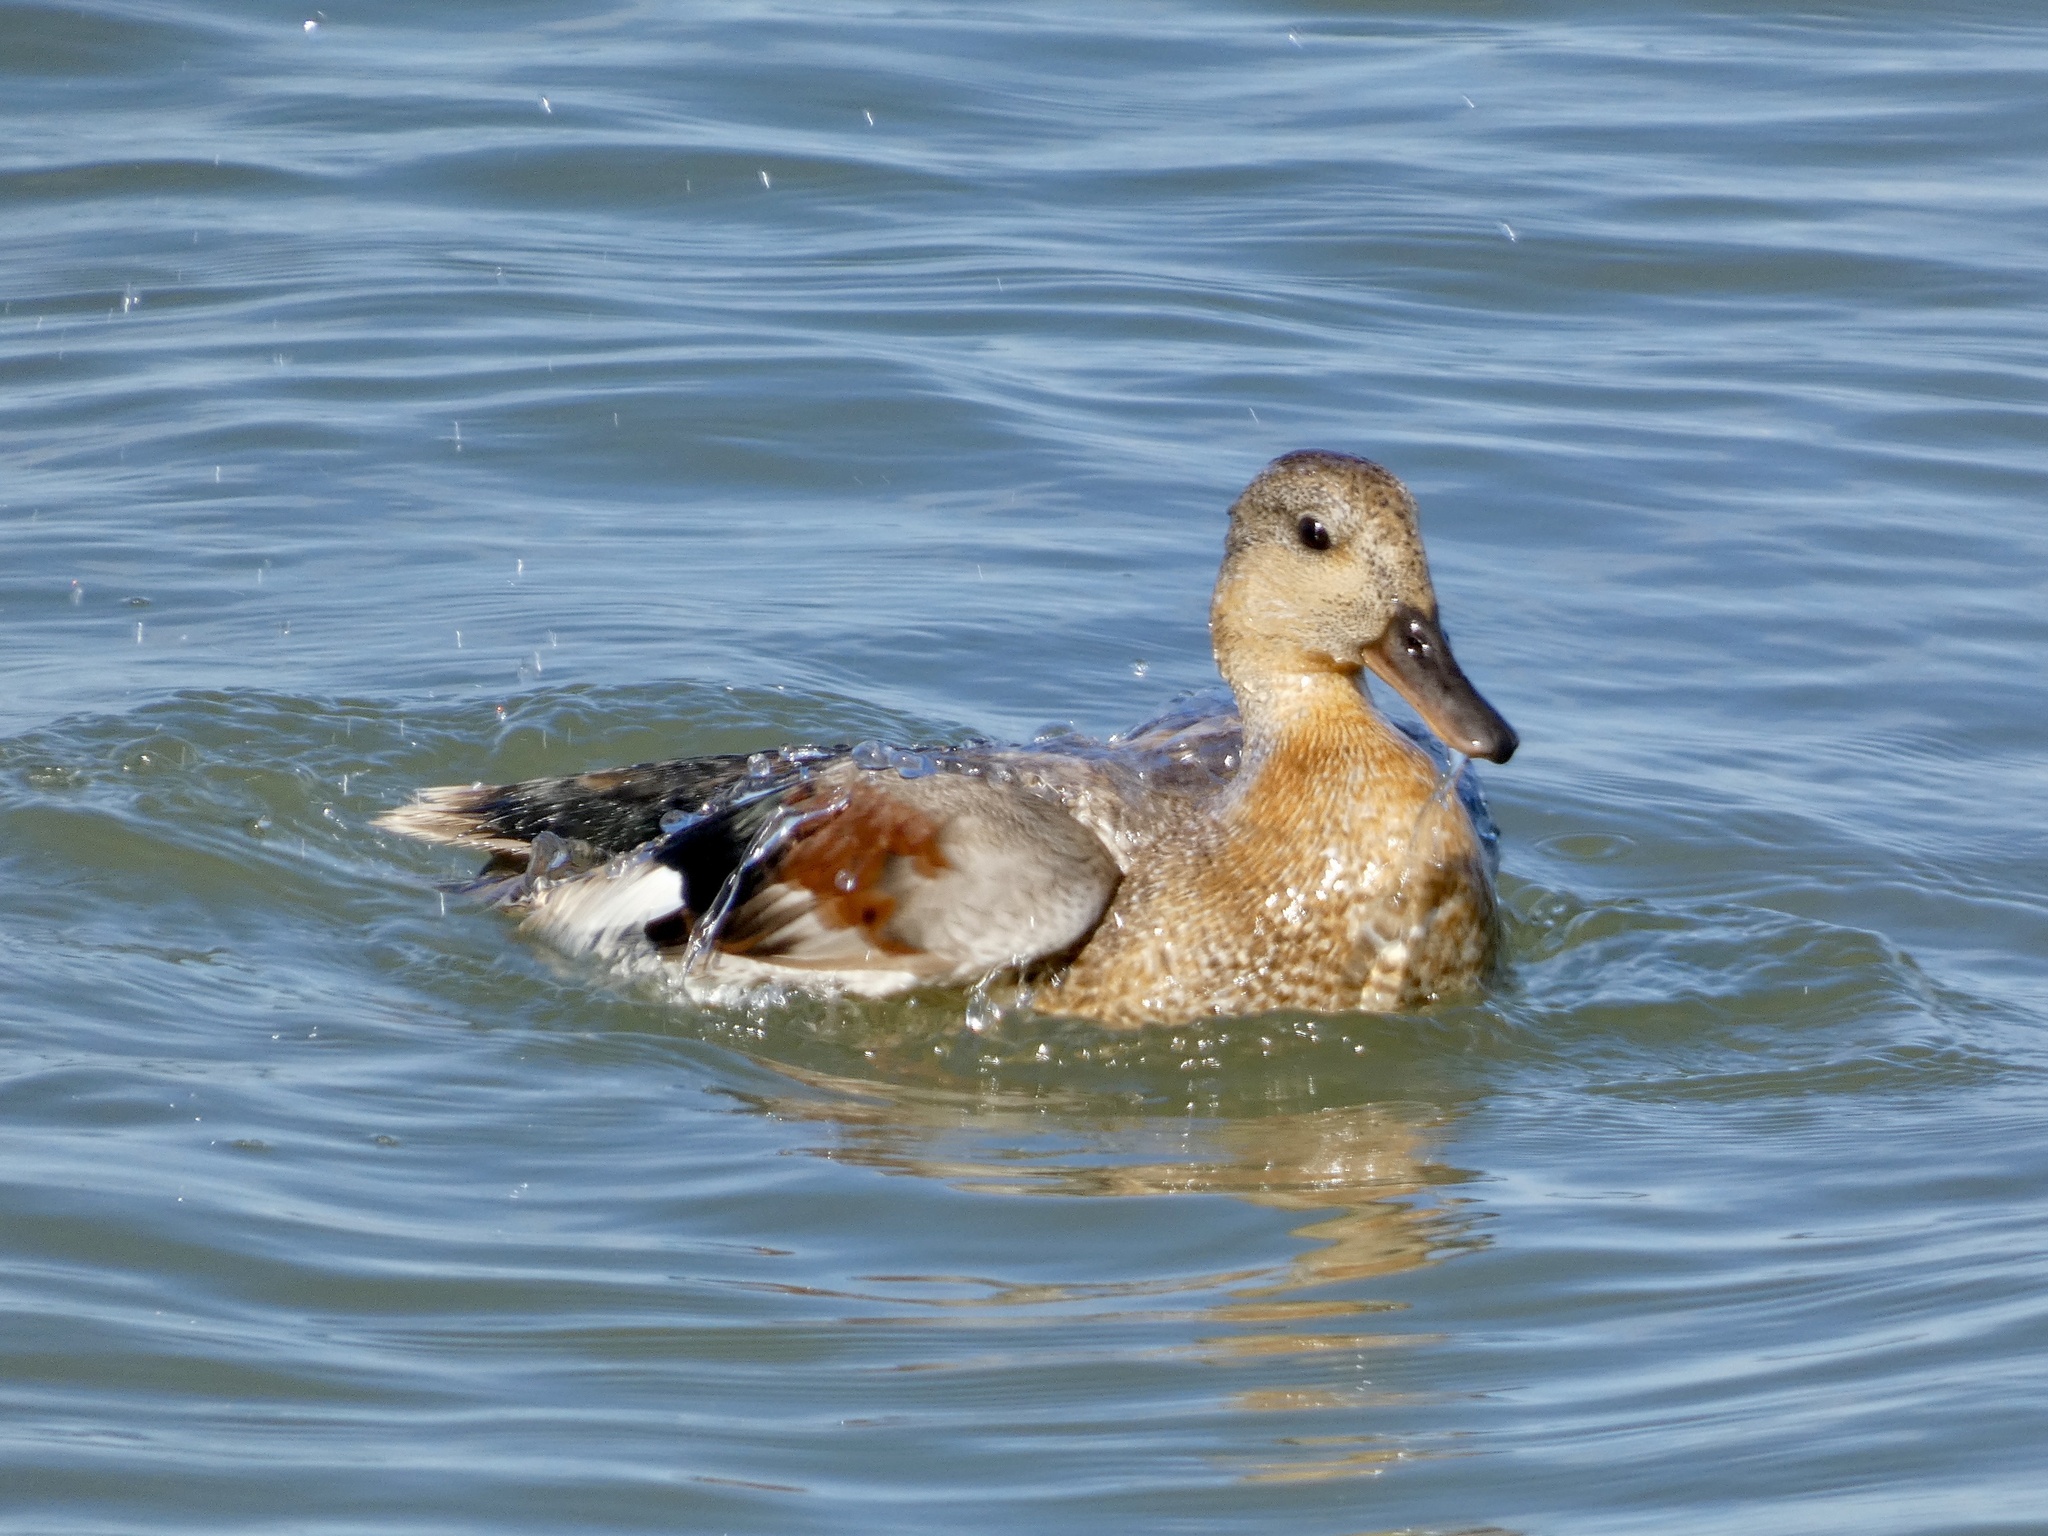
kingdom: Animalia
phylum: Chordata
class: Aves
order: Anseriformes
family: Anatidae
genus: Mareca
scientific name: Mareca strepera
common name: Gadwall
